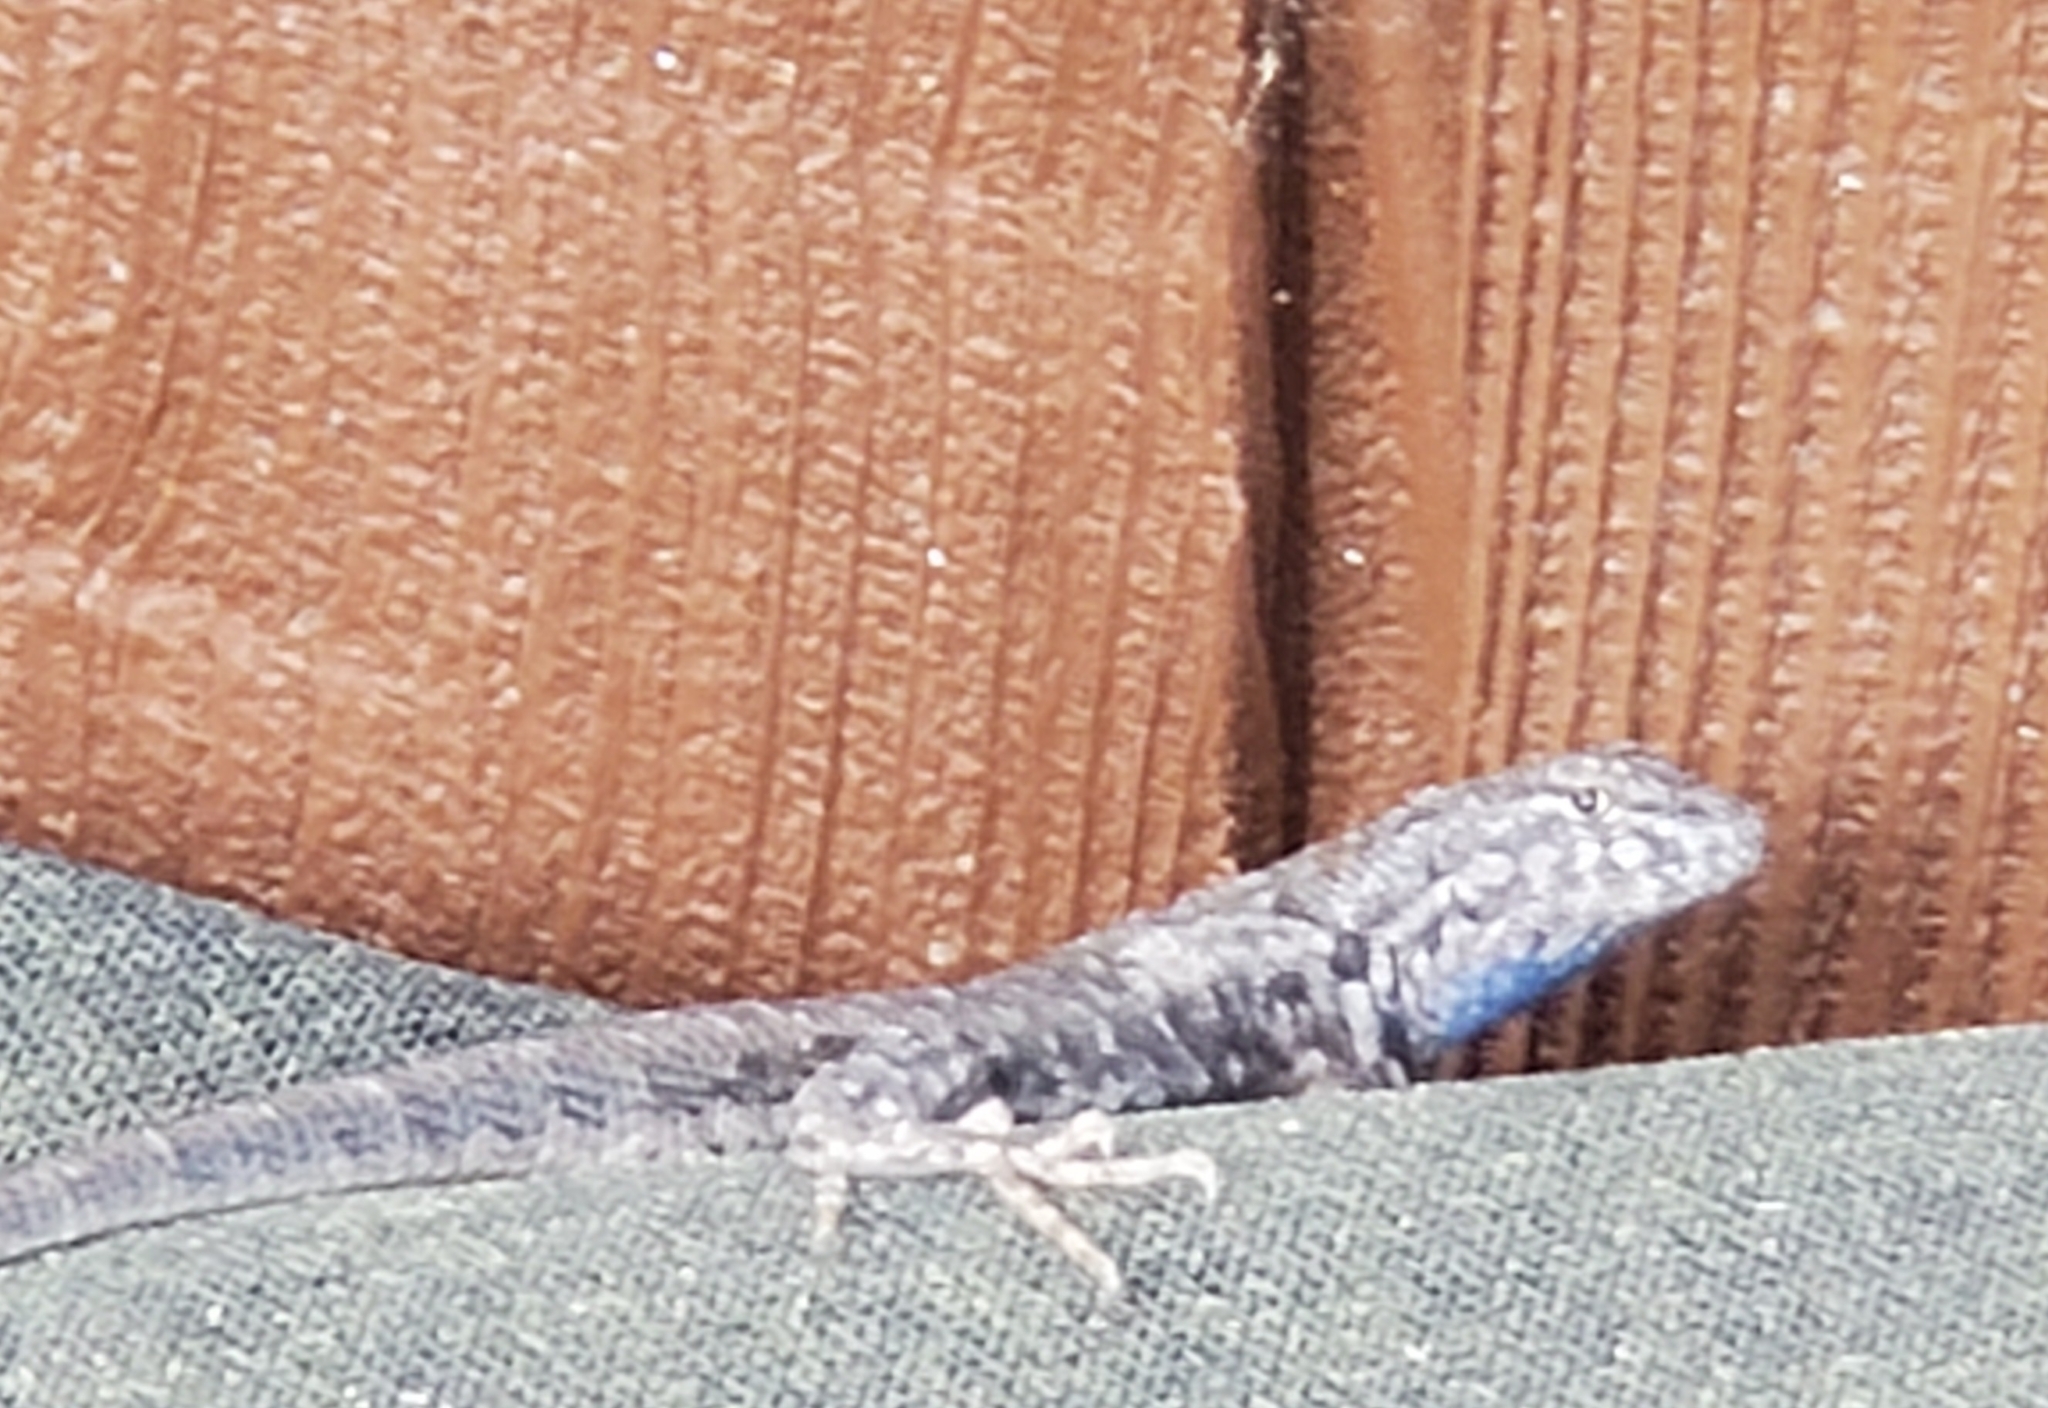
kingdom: Animalia
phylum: Chordata
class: Squamata
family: Phrynosomatidae
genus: Sceloporus
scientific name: Sceloporus occidentalis
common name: Western fence lizard
